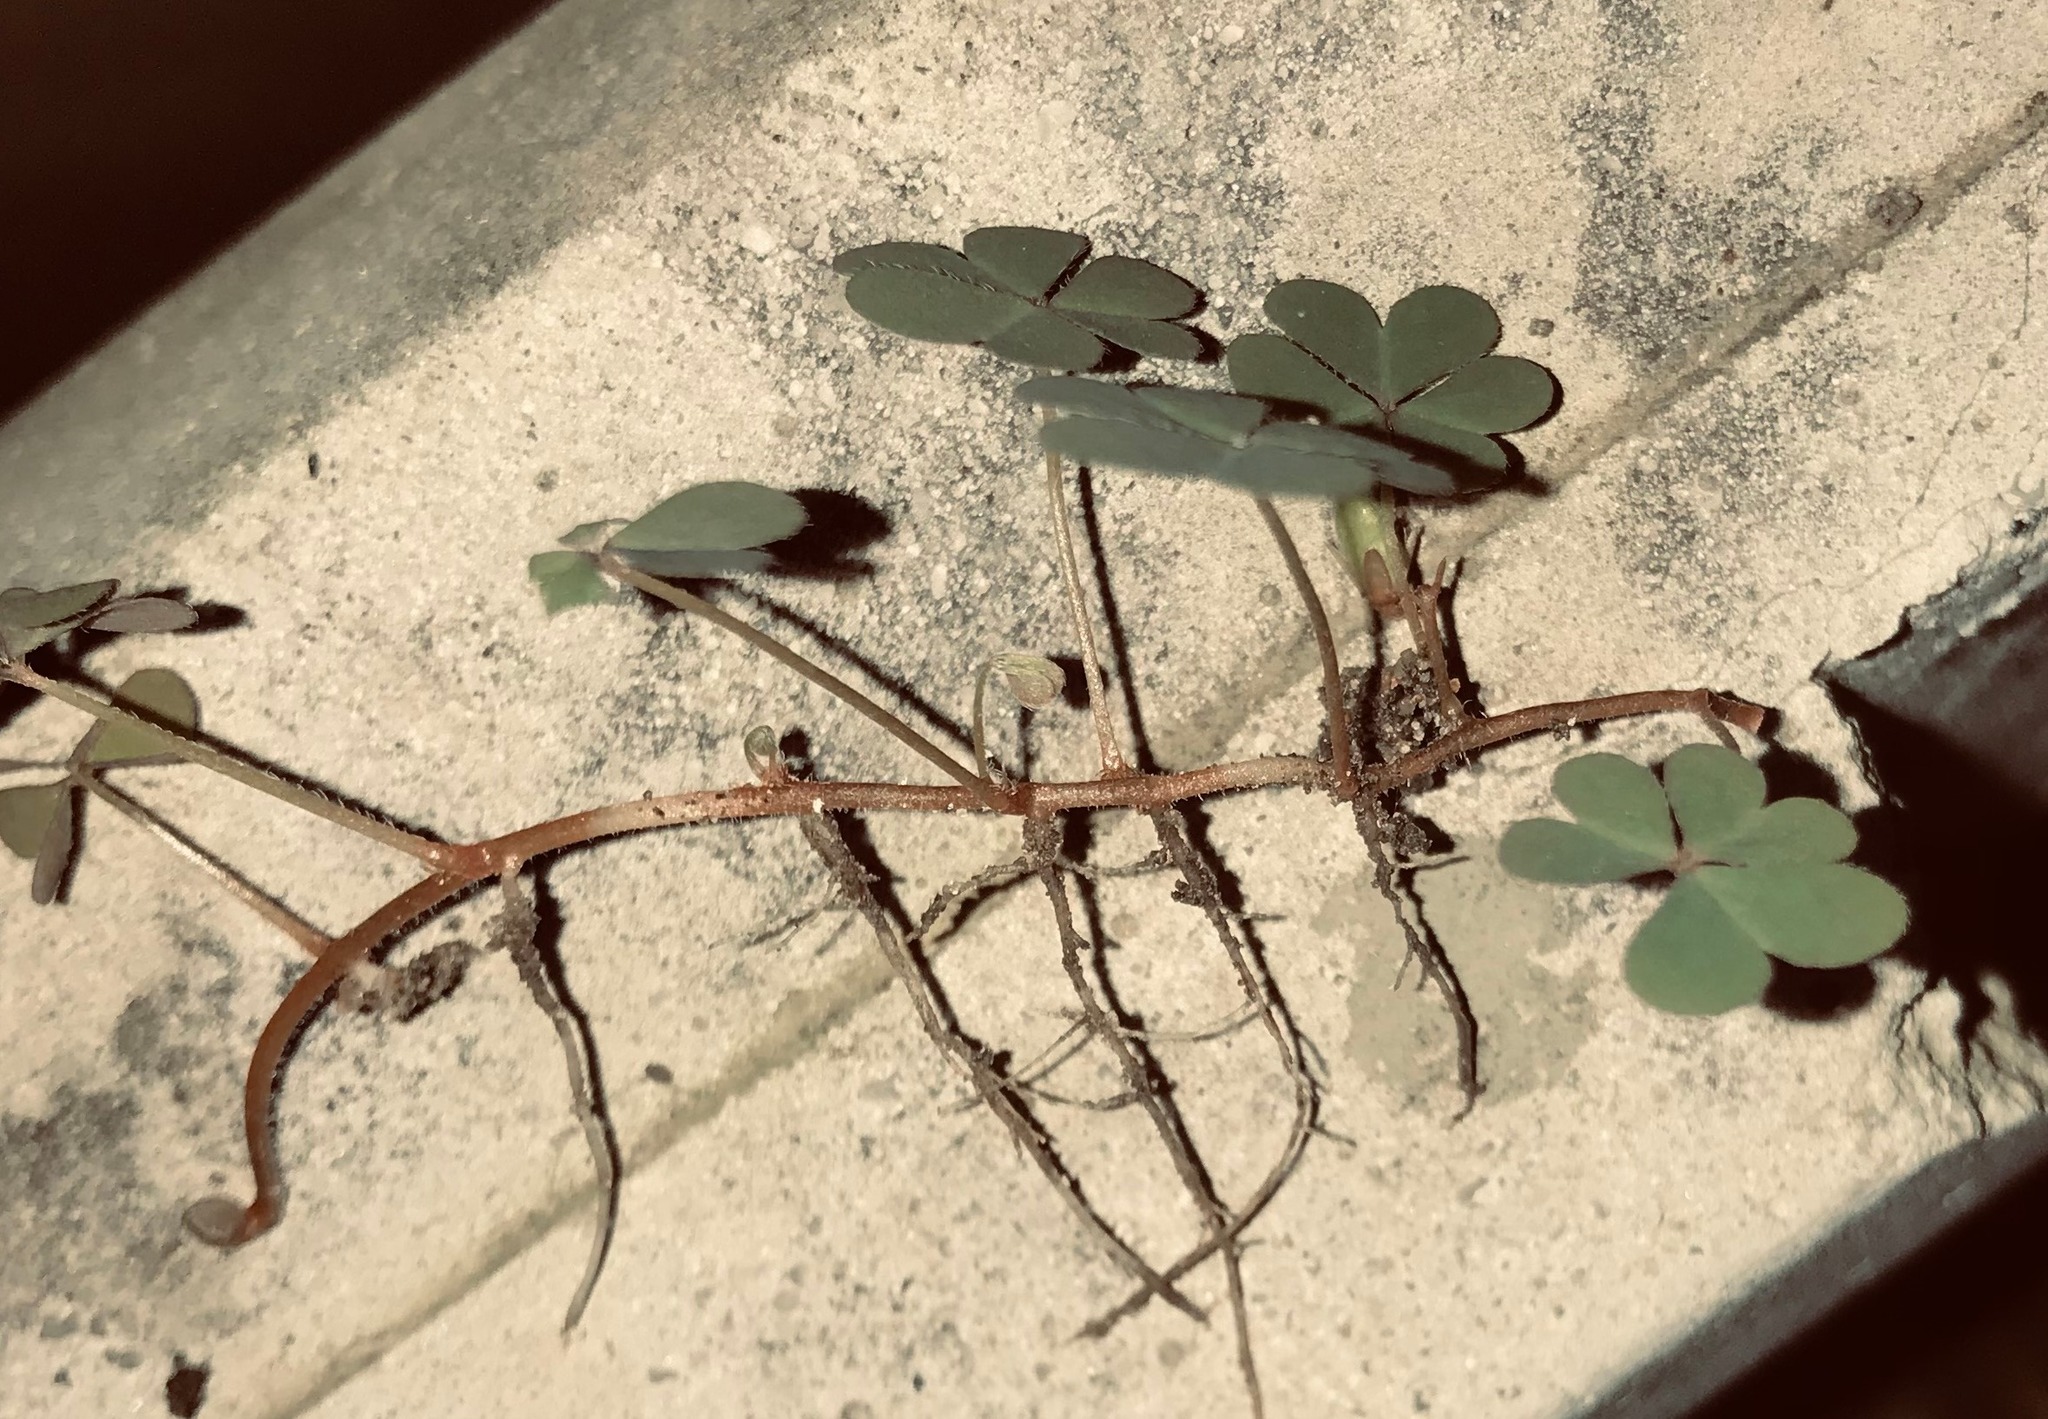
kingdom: Plantae
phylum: Tracheophyta
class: Magnoliopsida
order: Oxalidales
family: Oxalidaceae
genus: Oxalis
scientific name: Oxalis corniculata
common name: Procumbent yellow-sorrel
